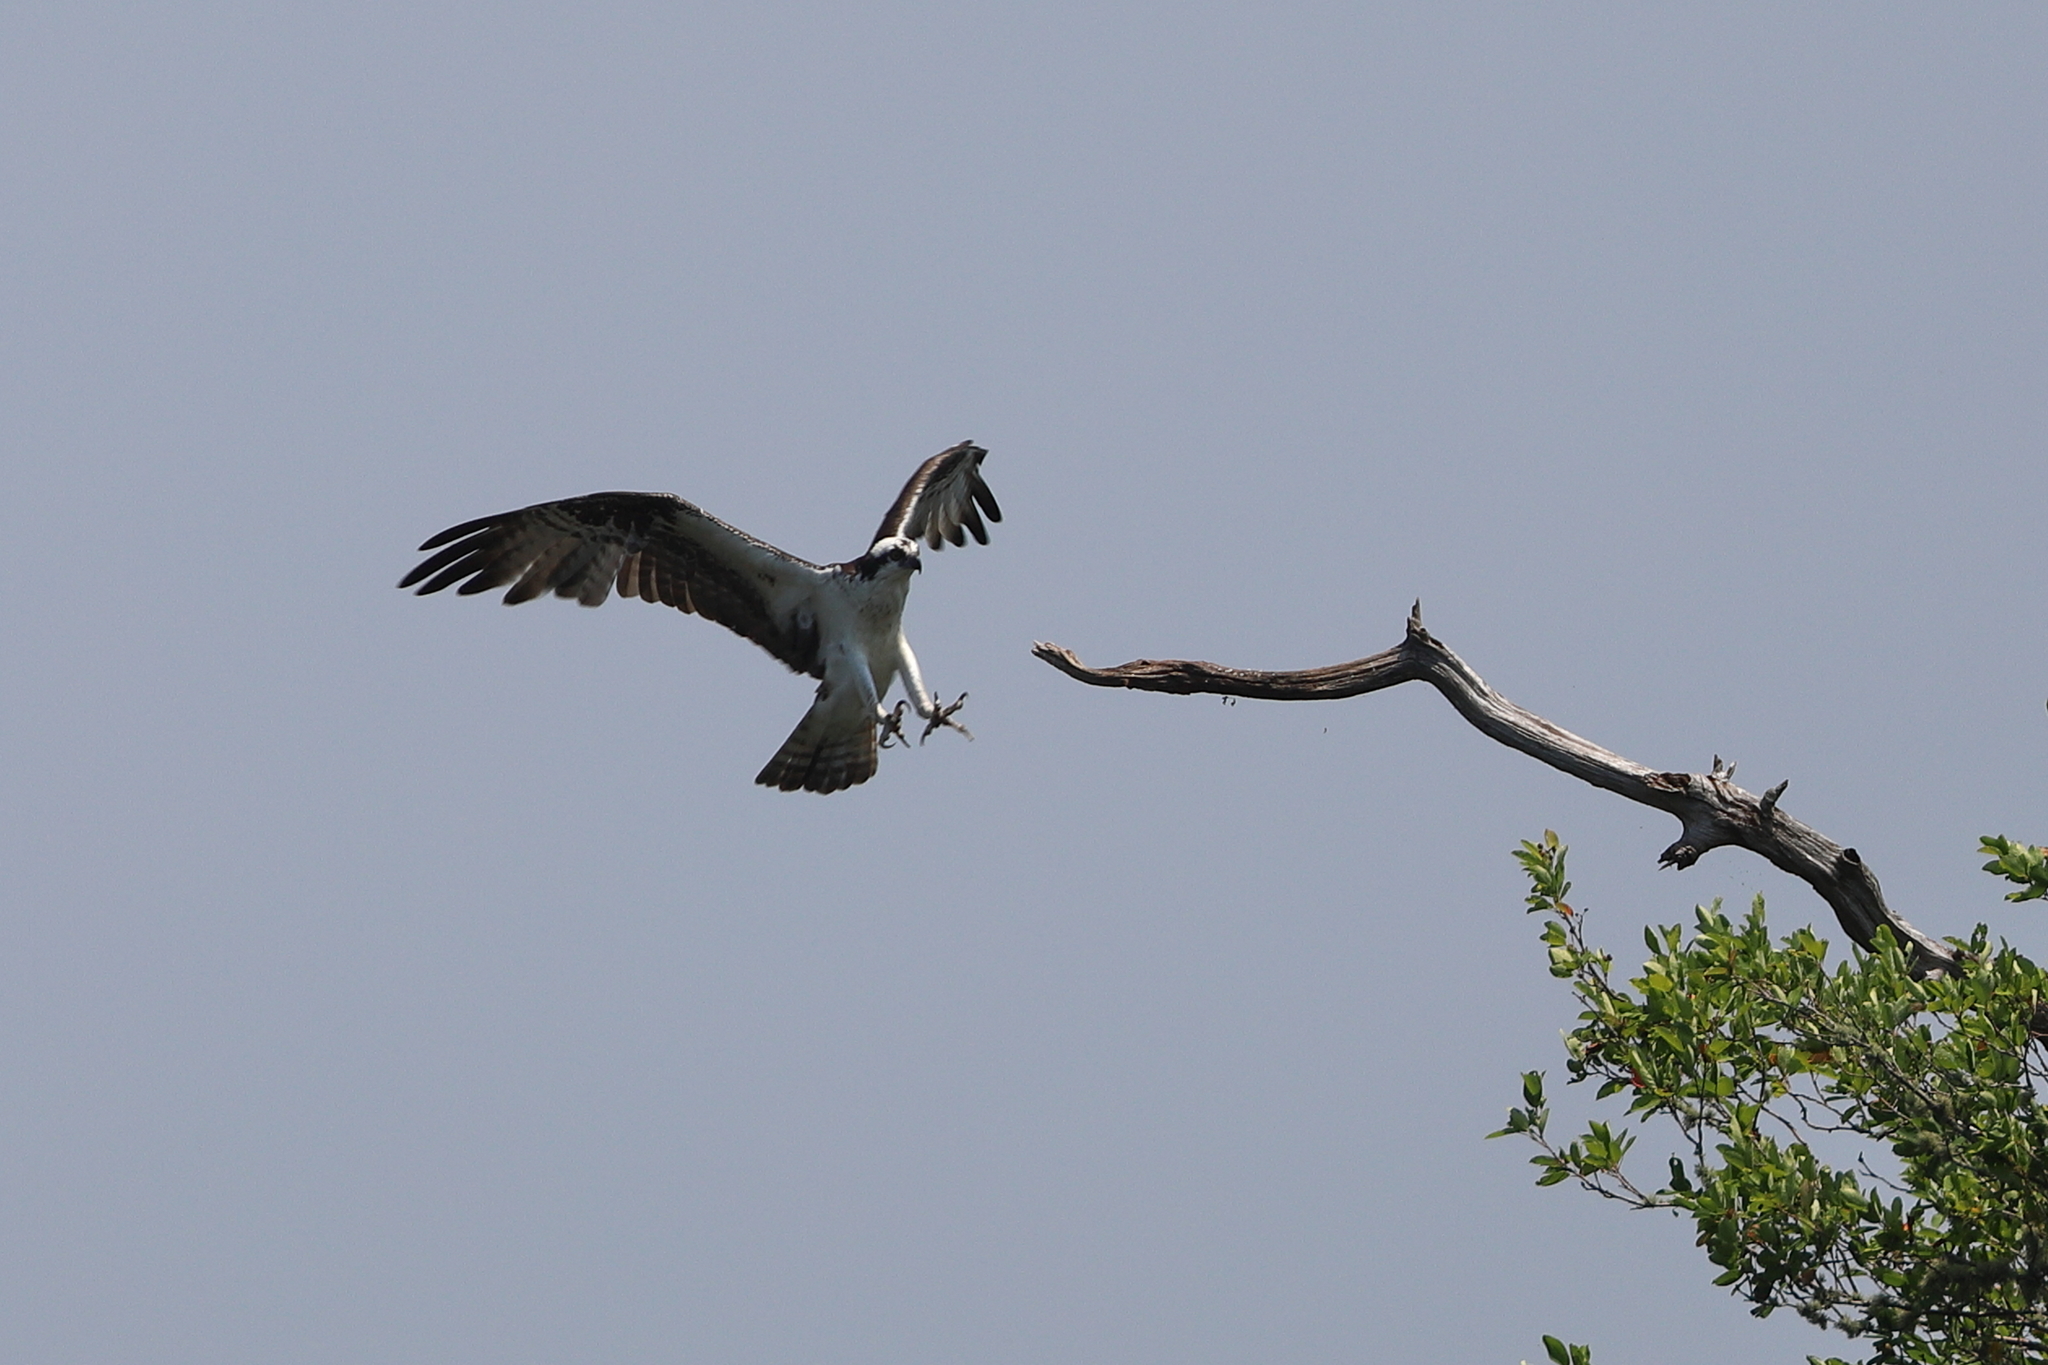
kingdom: Animalia
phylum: Chordata
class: Aves
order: Accipitriformes
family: Pandionidae
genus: Pandion
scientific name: Pandion haliaetus
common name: Osprey
